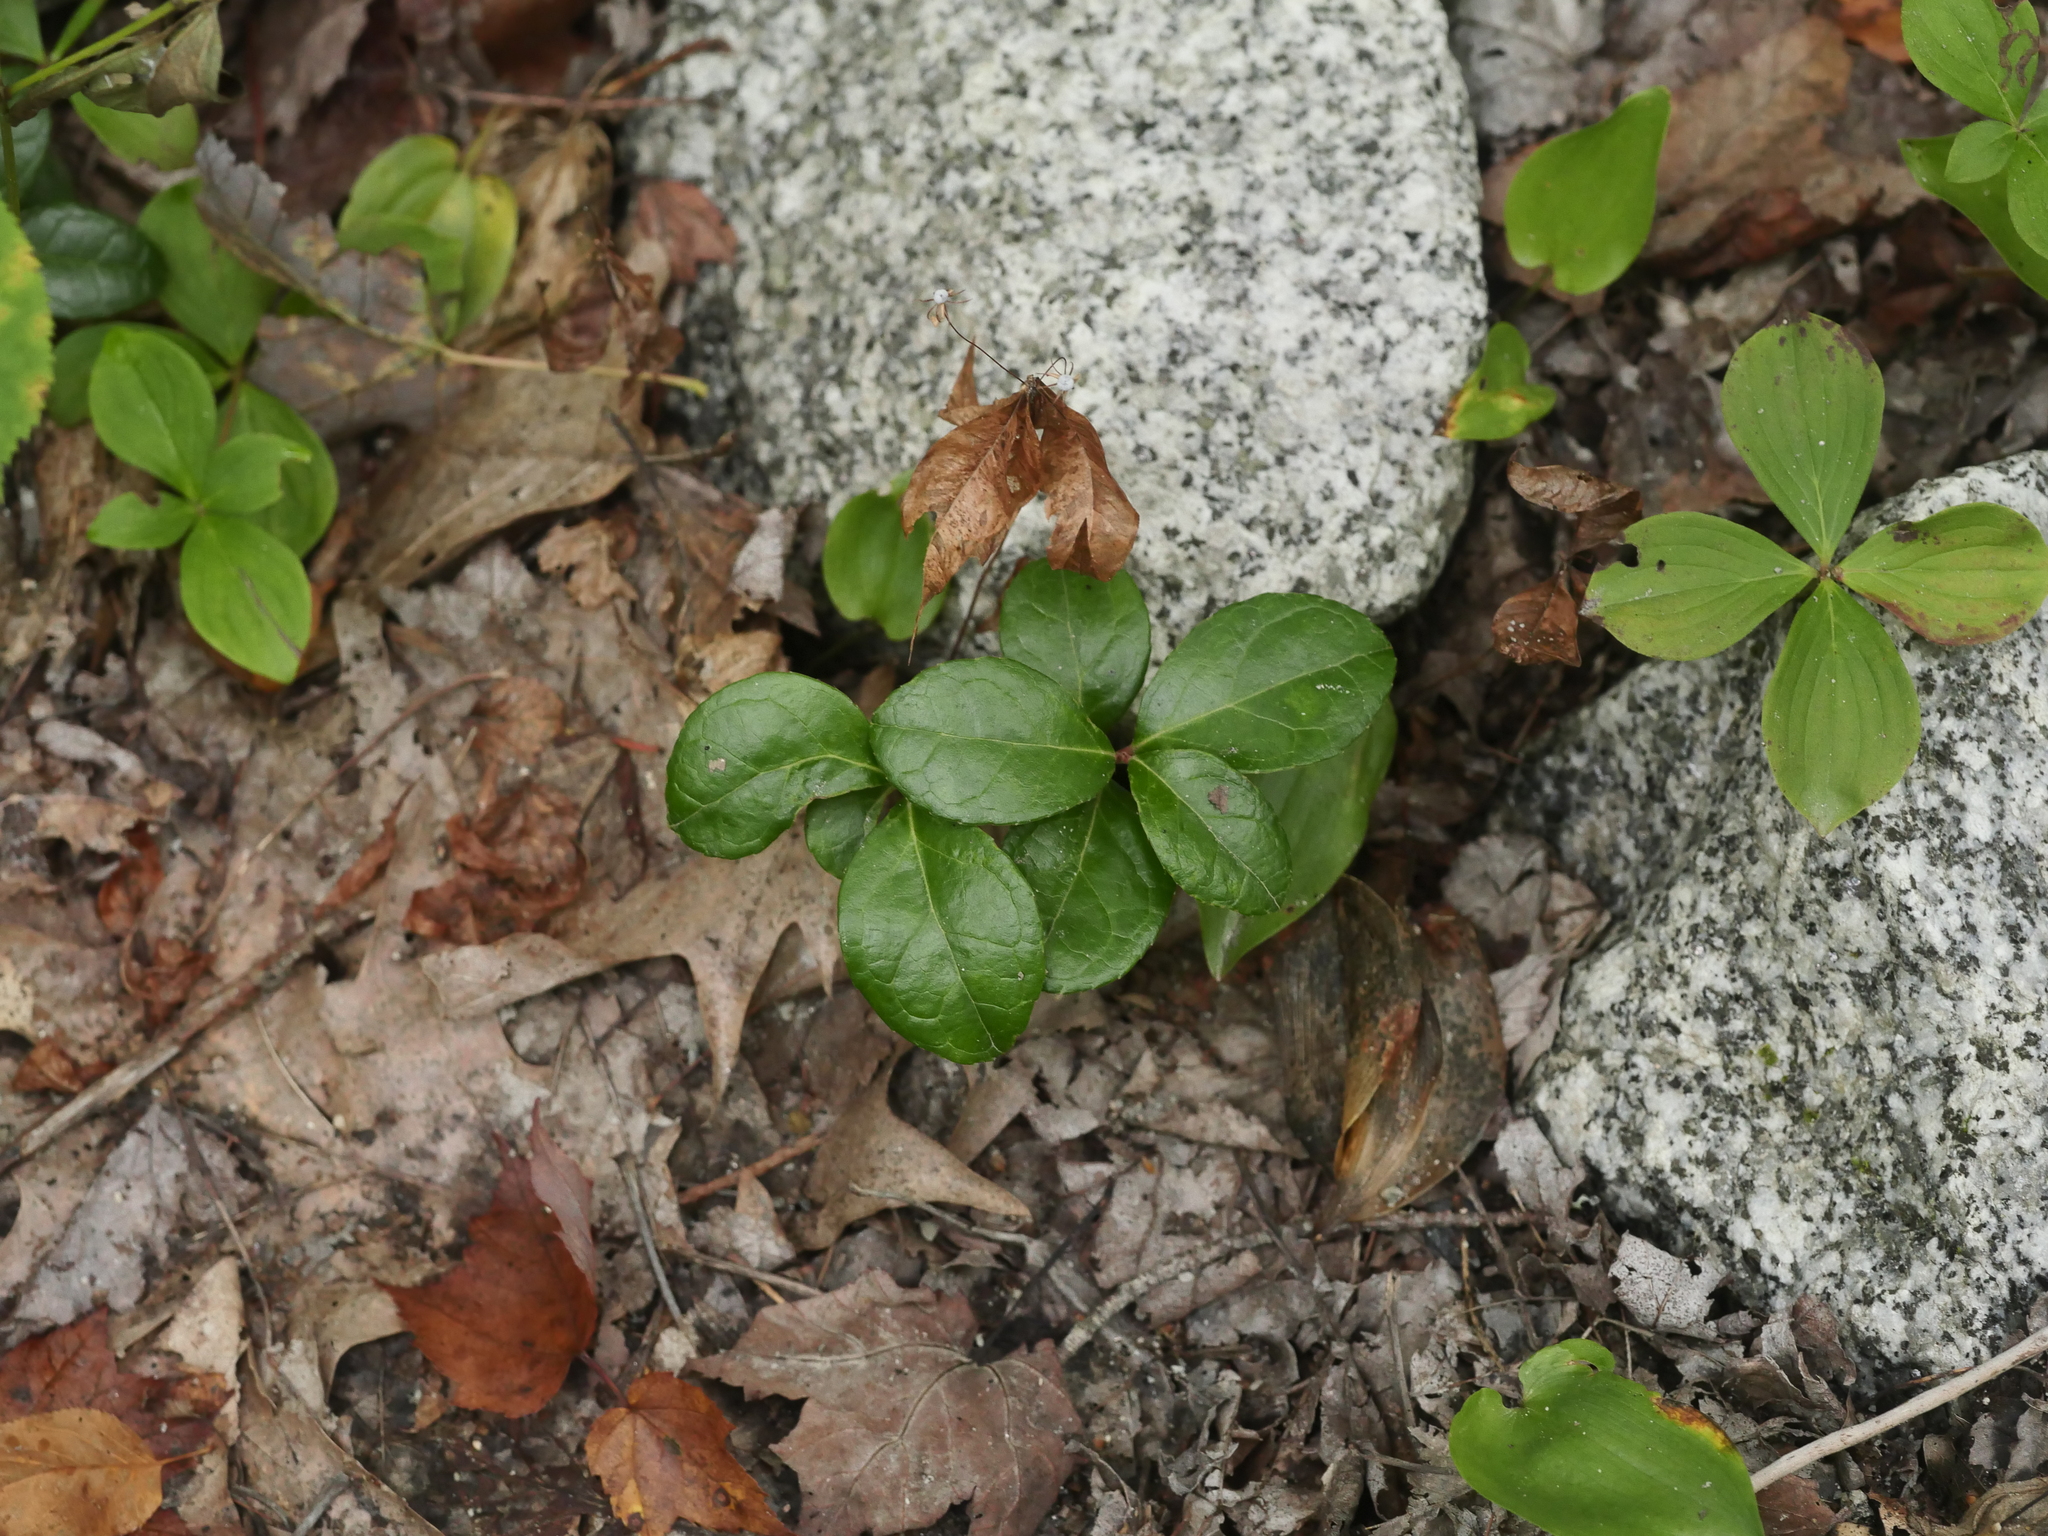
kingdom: Plantae
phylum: Tracheophyta
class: Magnoliopsida
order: Ericales
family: Ericaceae
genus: Gaultheria
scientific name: Gaultheria procumbens
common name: Checkerberry
